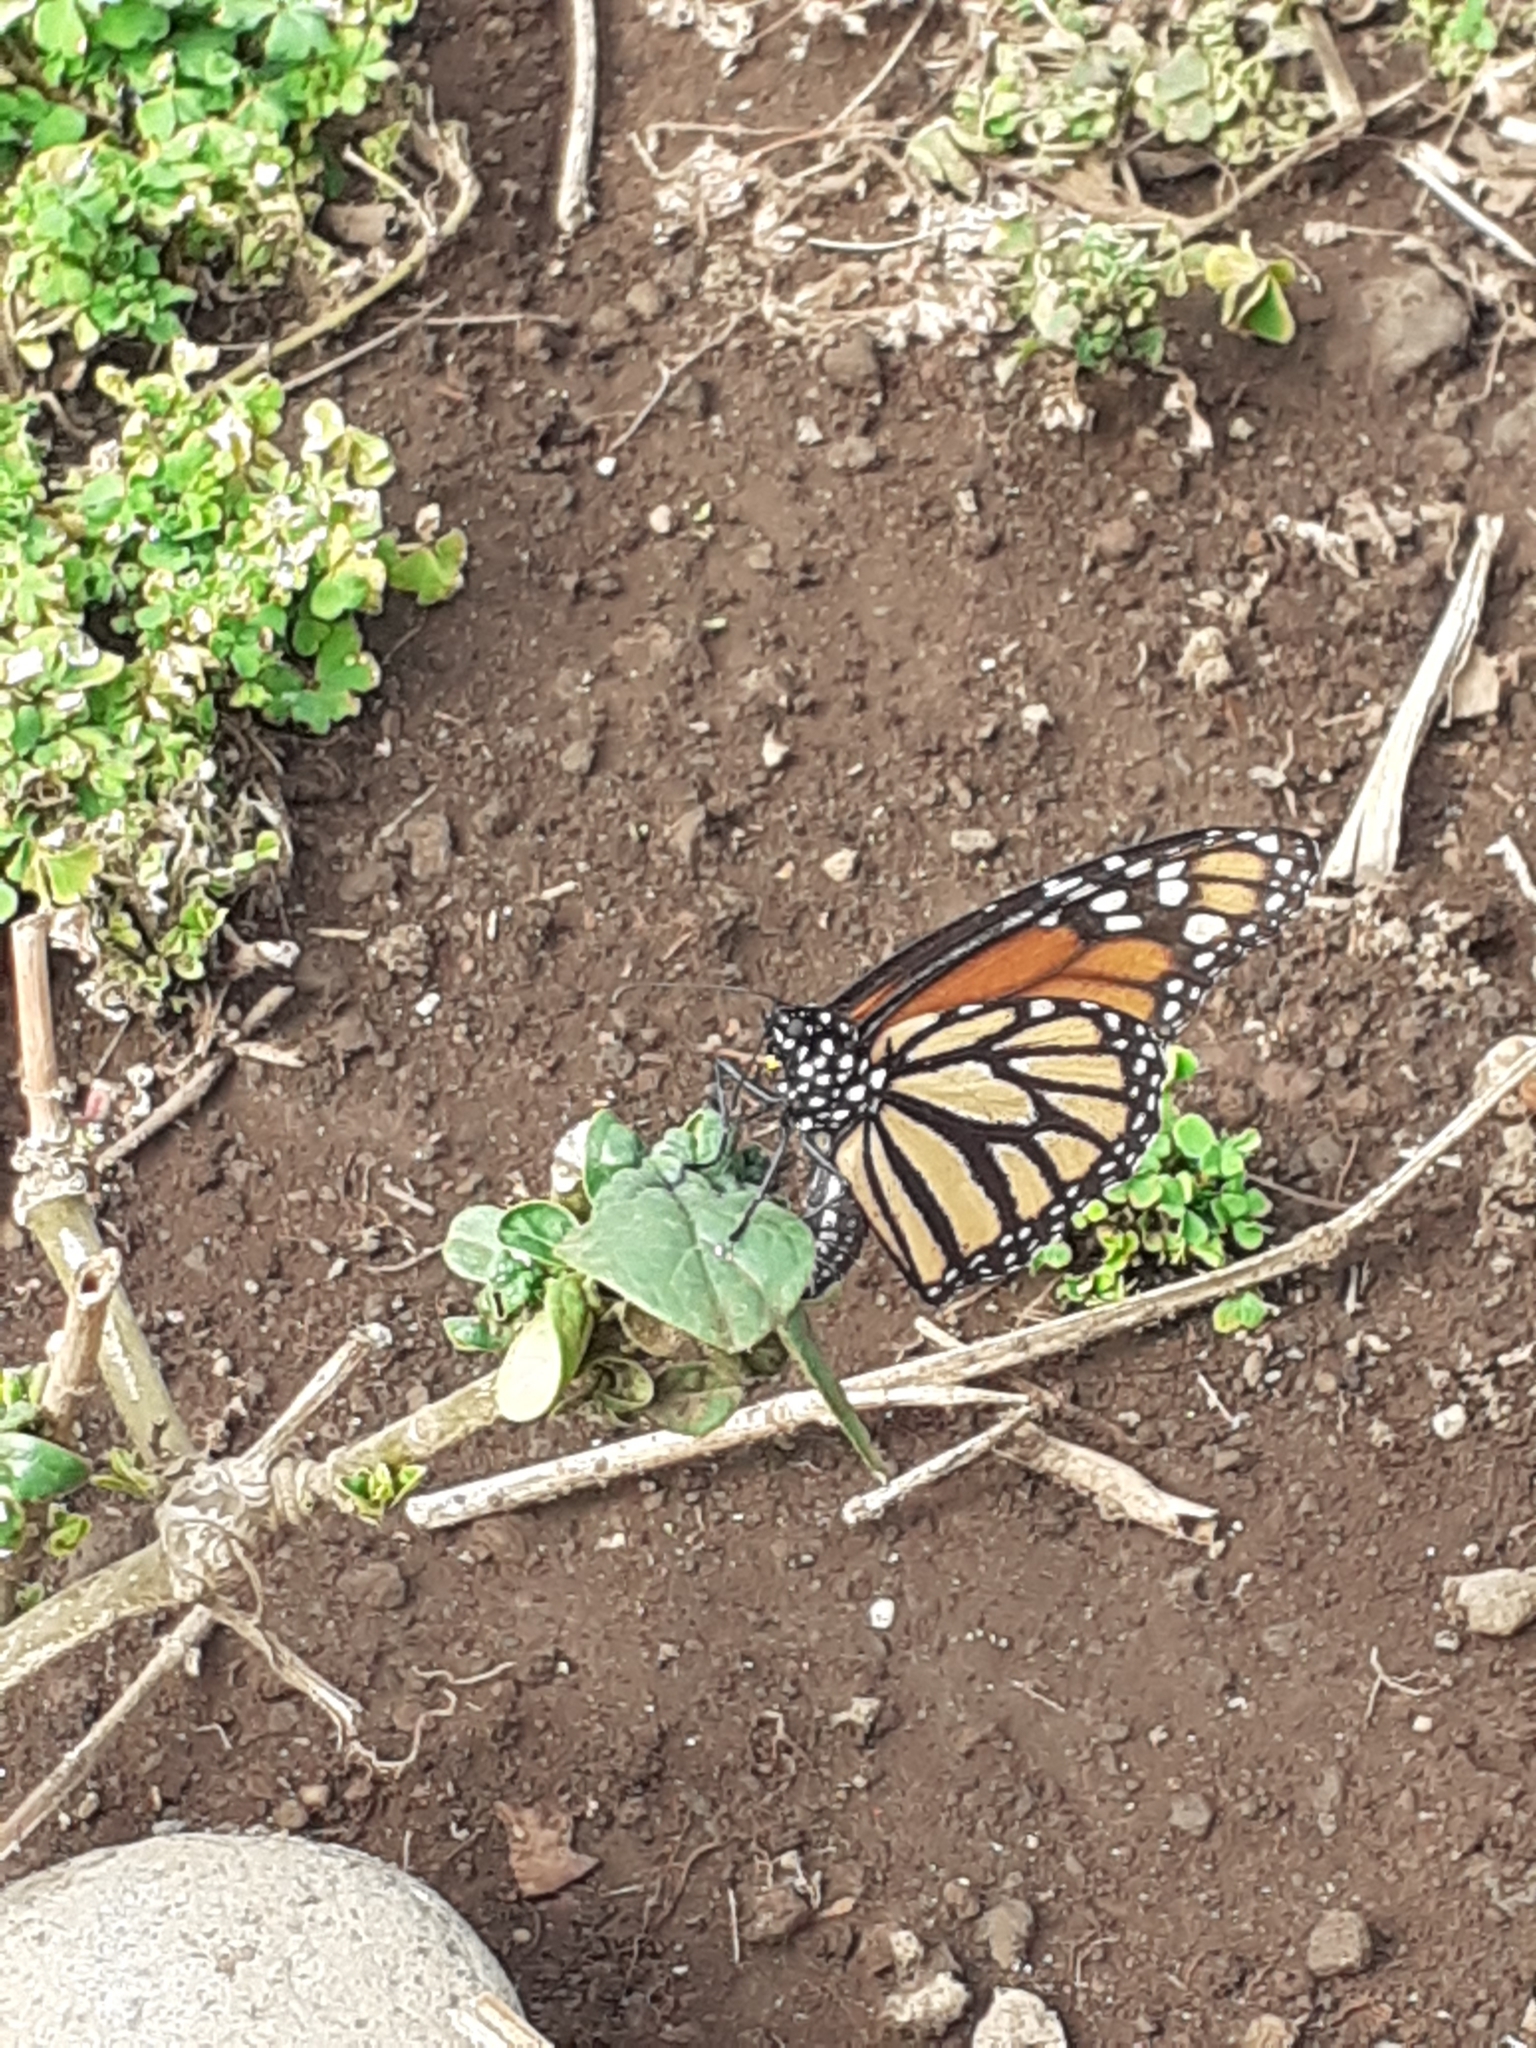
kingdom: Animalia
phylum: Arthropoda
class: Insecta
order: Lepidoptera
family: Nymphalidae
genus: Danaus
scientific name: Danaus plexippus
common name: Monarch
